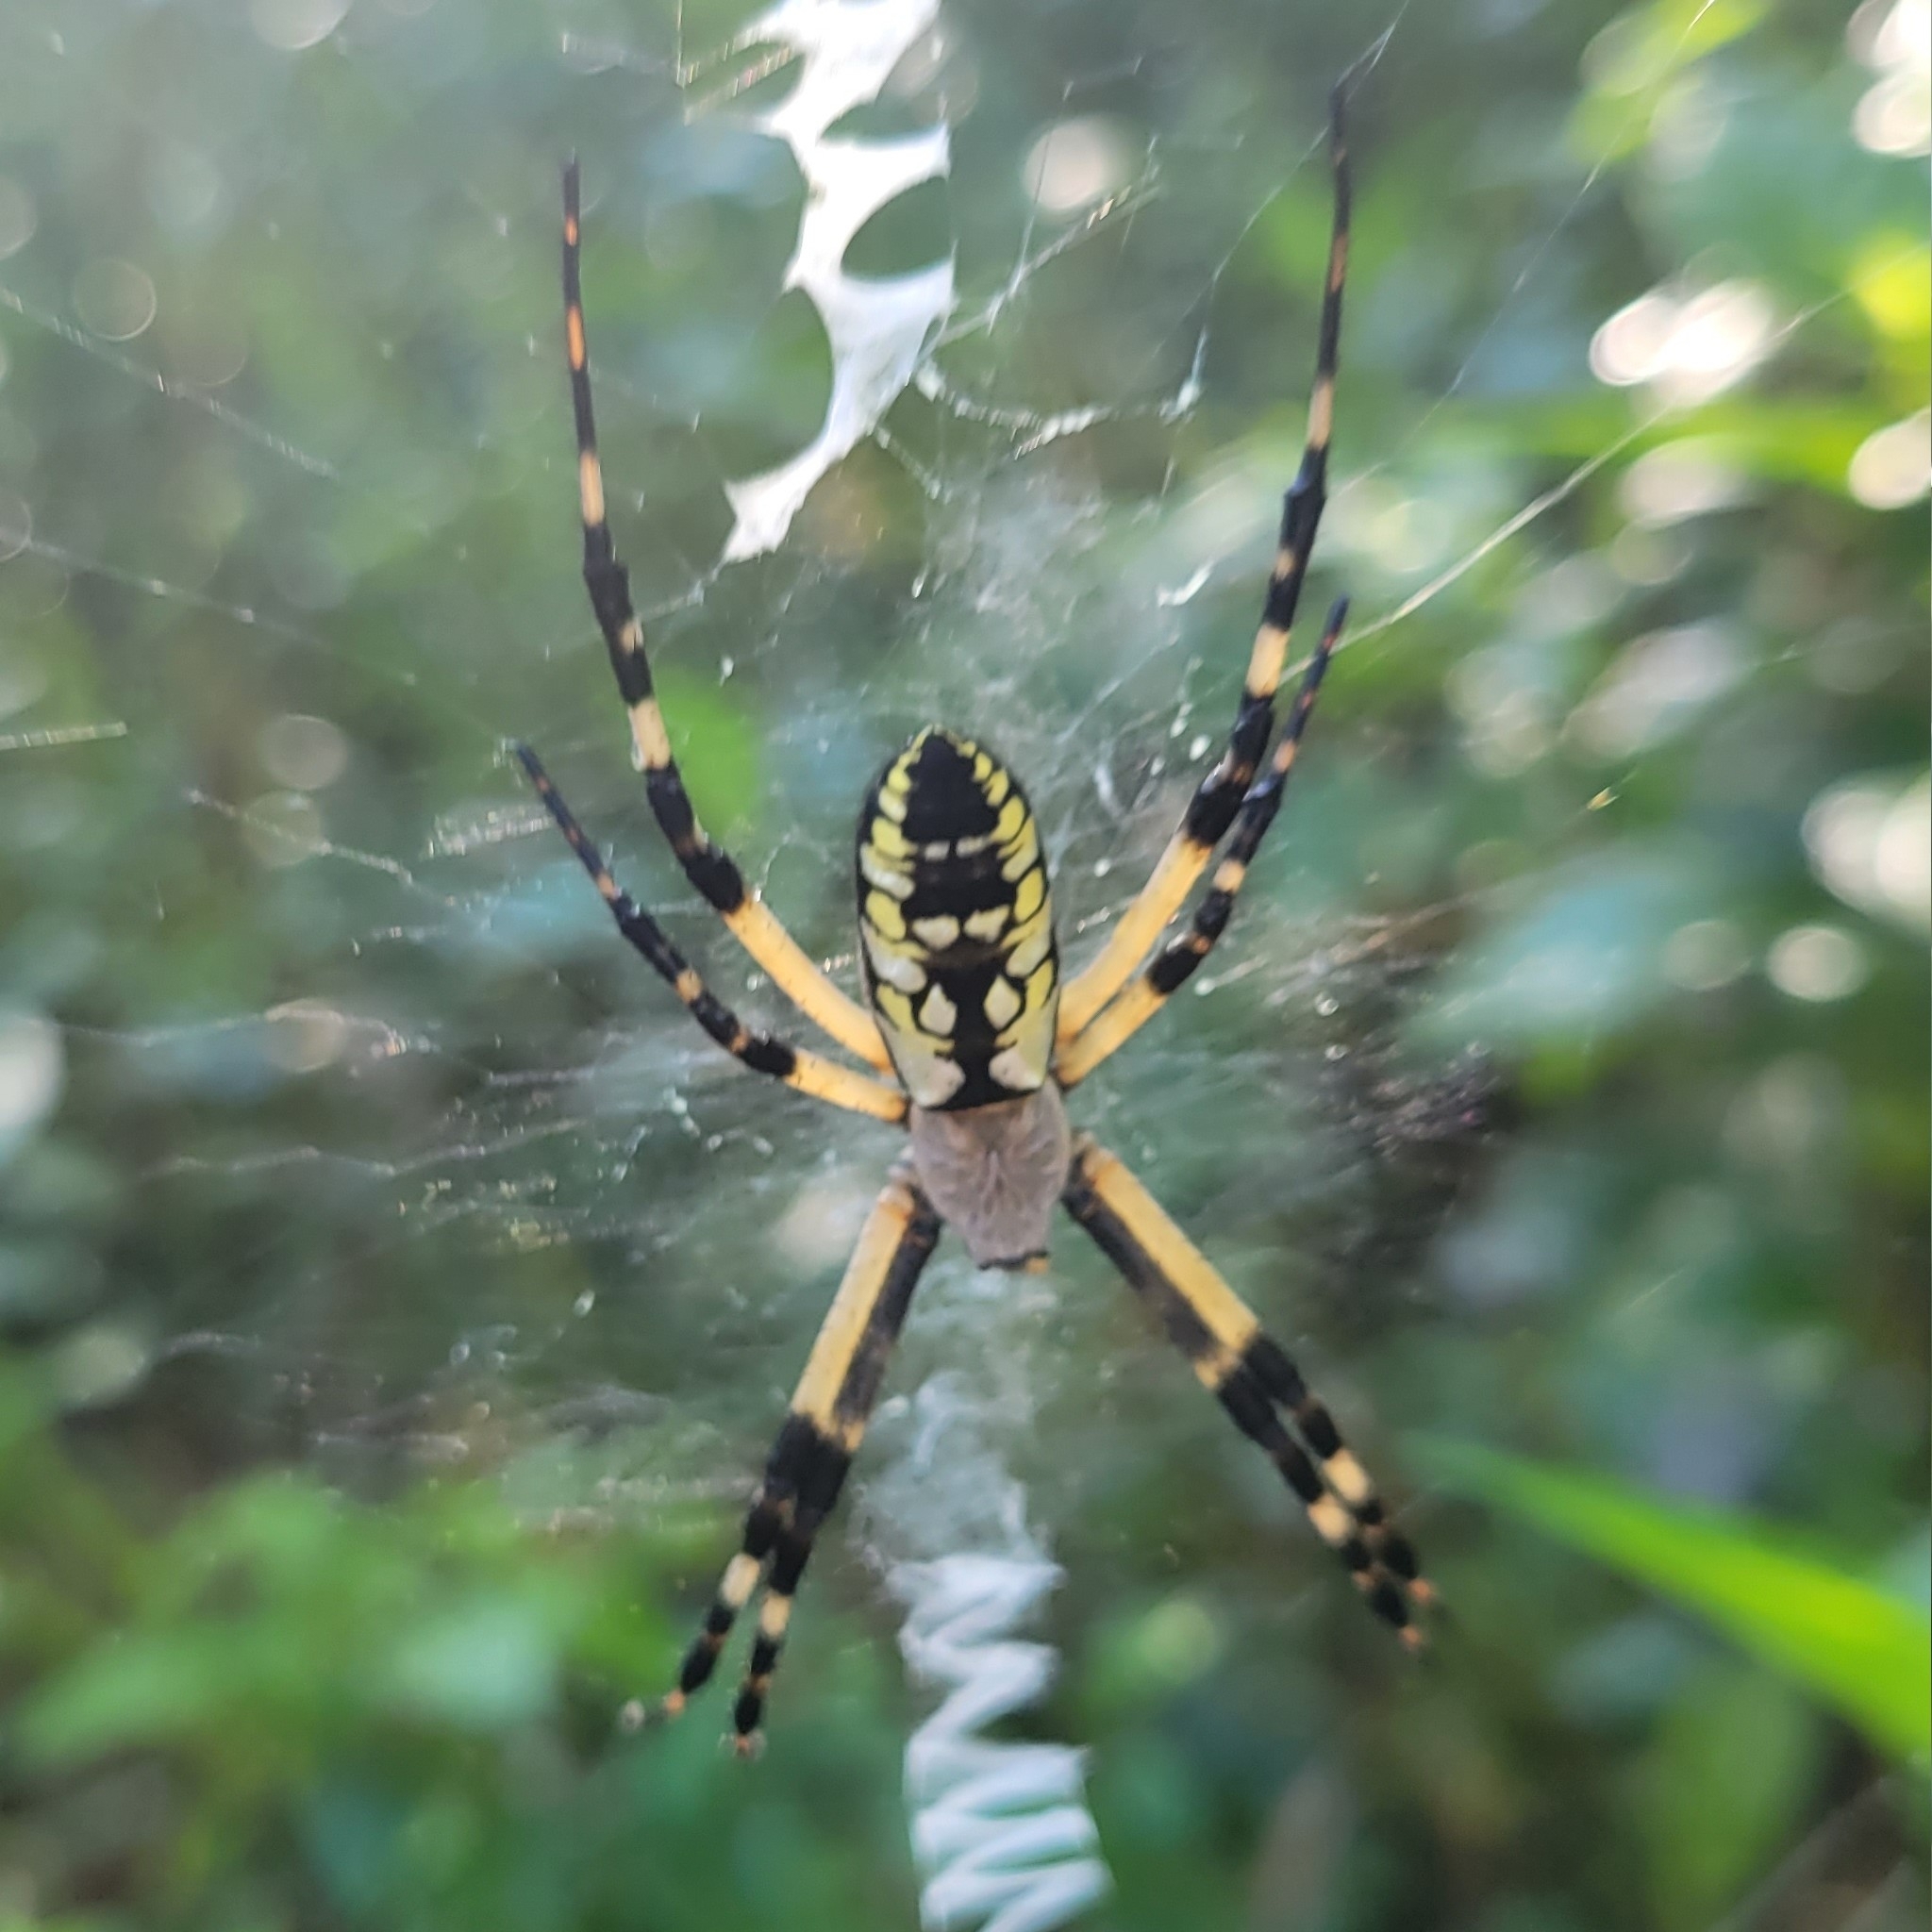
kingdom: Animalia
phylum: Arthropoda
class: Arachnida
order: Araneae
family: Araneidae
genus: Argiope
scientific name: Argiope aurantia
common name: Orb weavers
